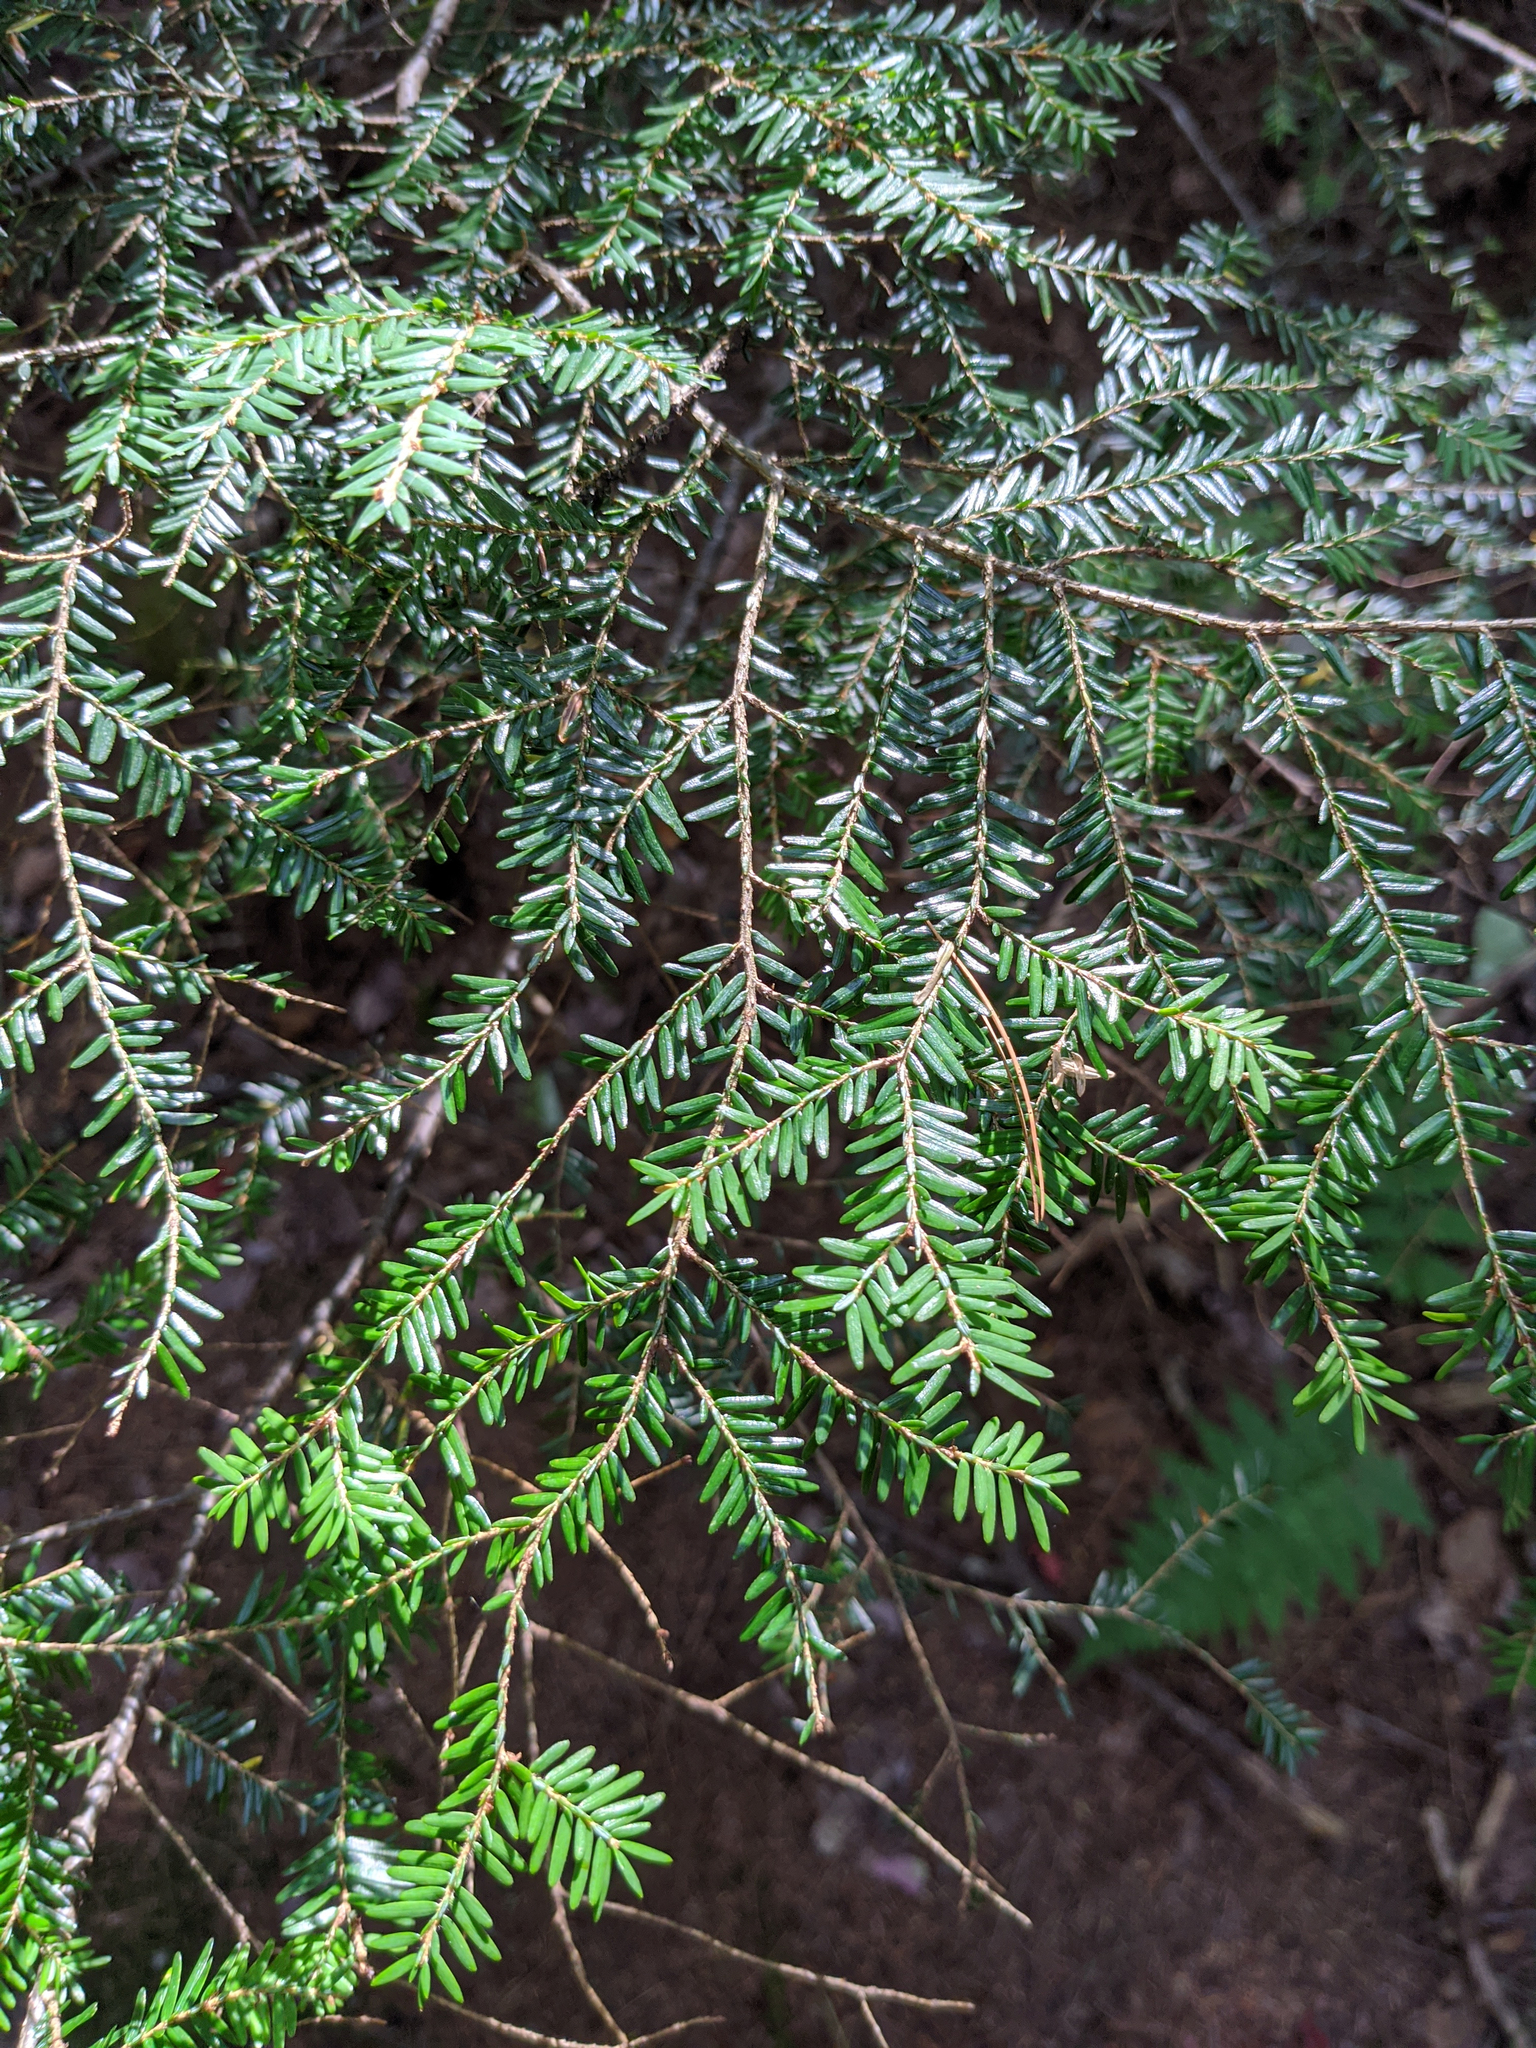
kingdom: Plantae
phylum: Tracheophyta
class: Pinopsida
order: Pinales
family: Pinaceae
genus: Tsuga
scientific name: Tsuga canadensis
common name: Eastern hemlock
